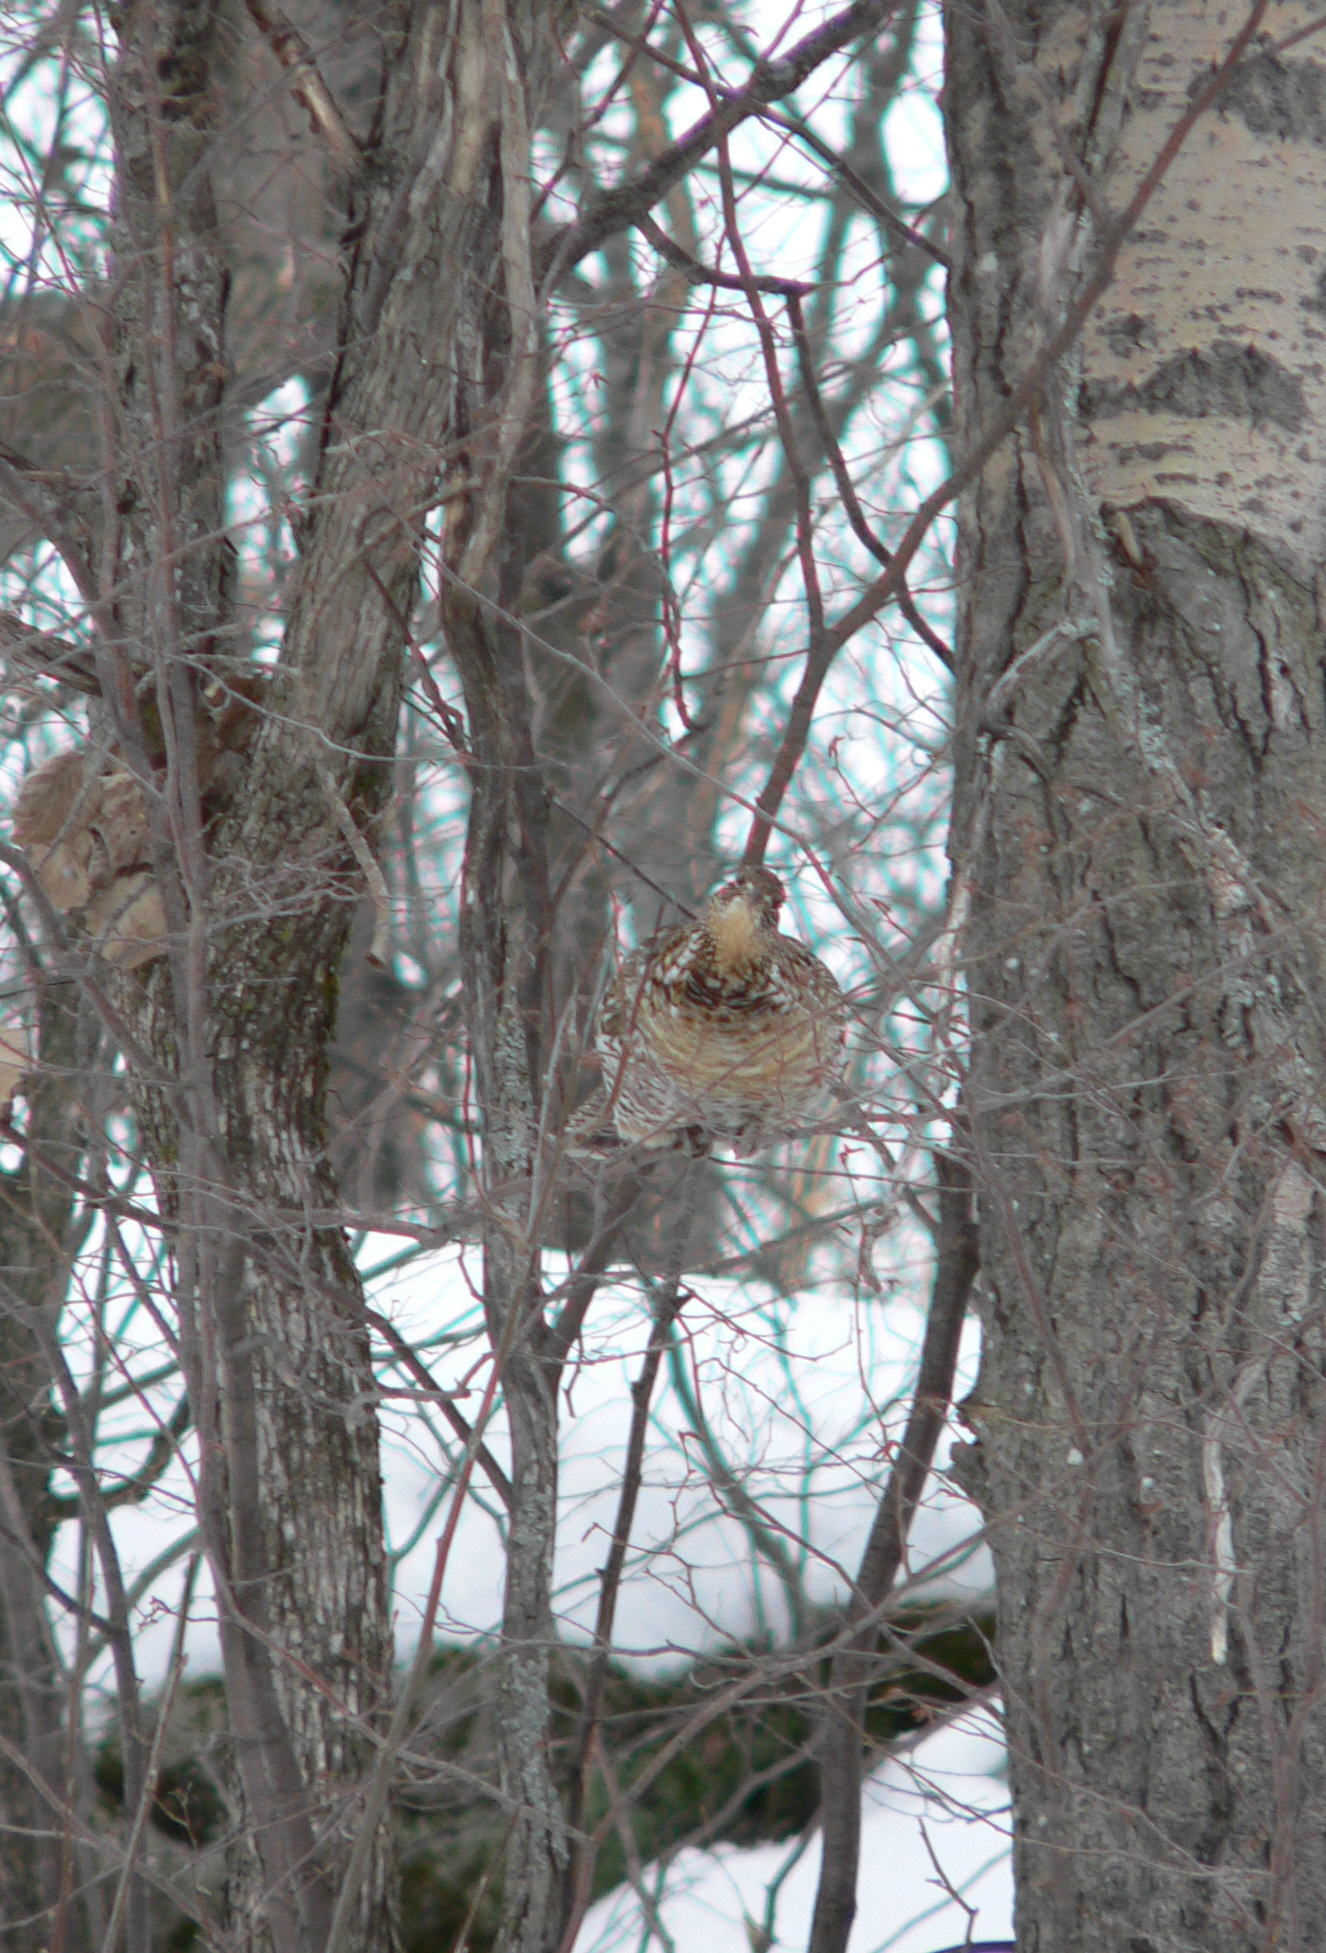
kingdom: Animalia
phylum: Chordata
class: Aves
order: Galliformes
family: Phasianidae
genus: Bonasa
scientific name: Bonasa umbellus
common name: Ruffed grouse
